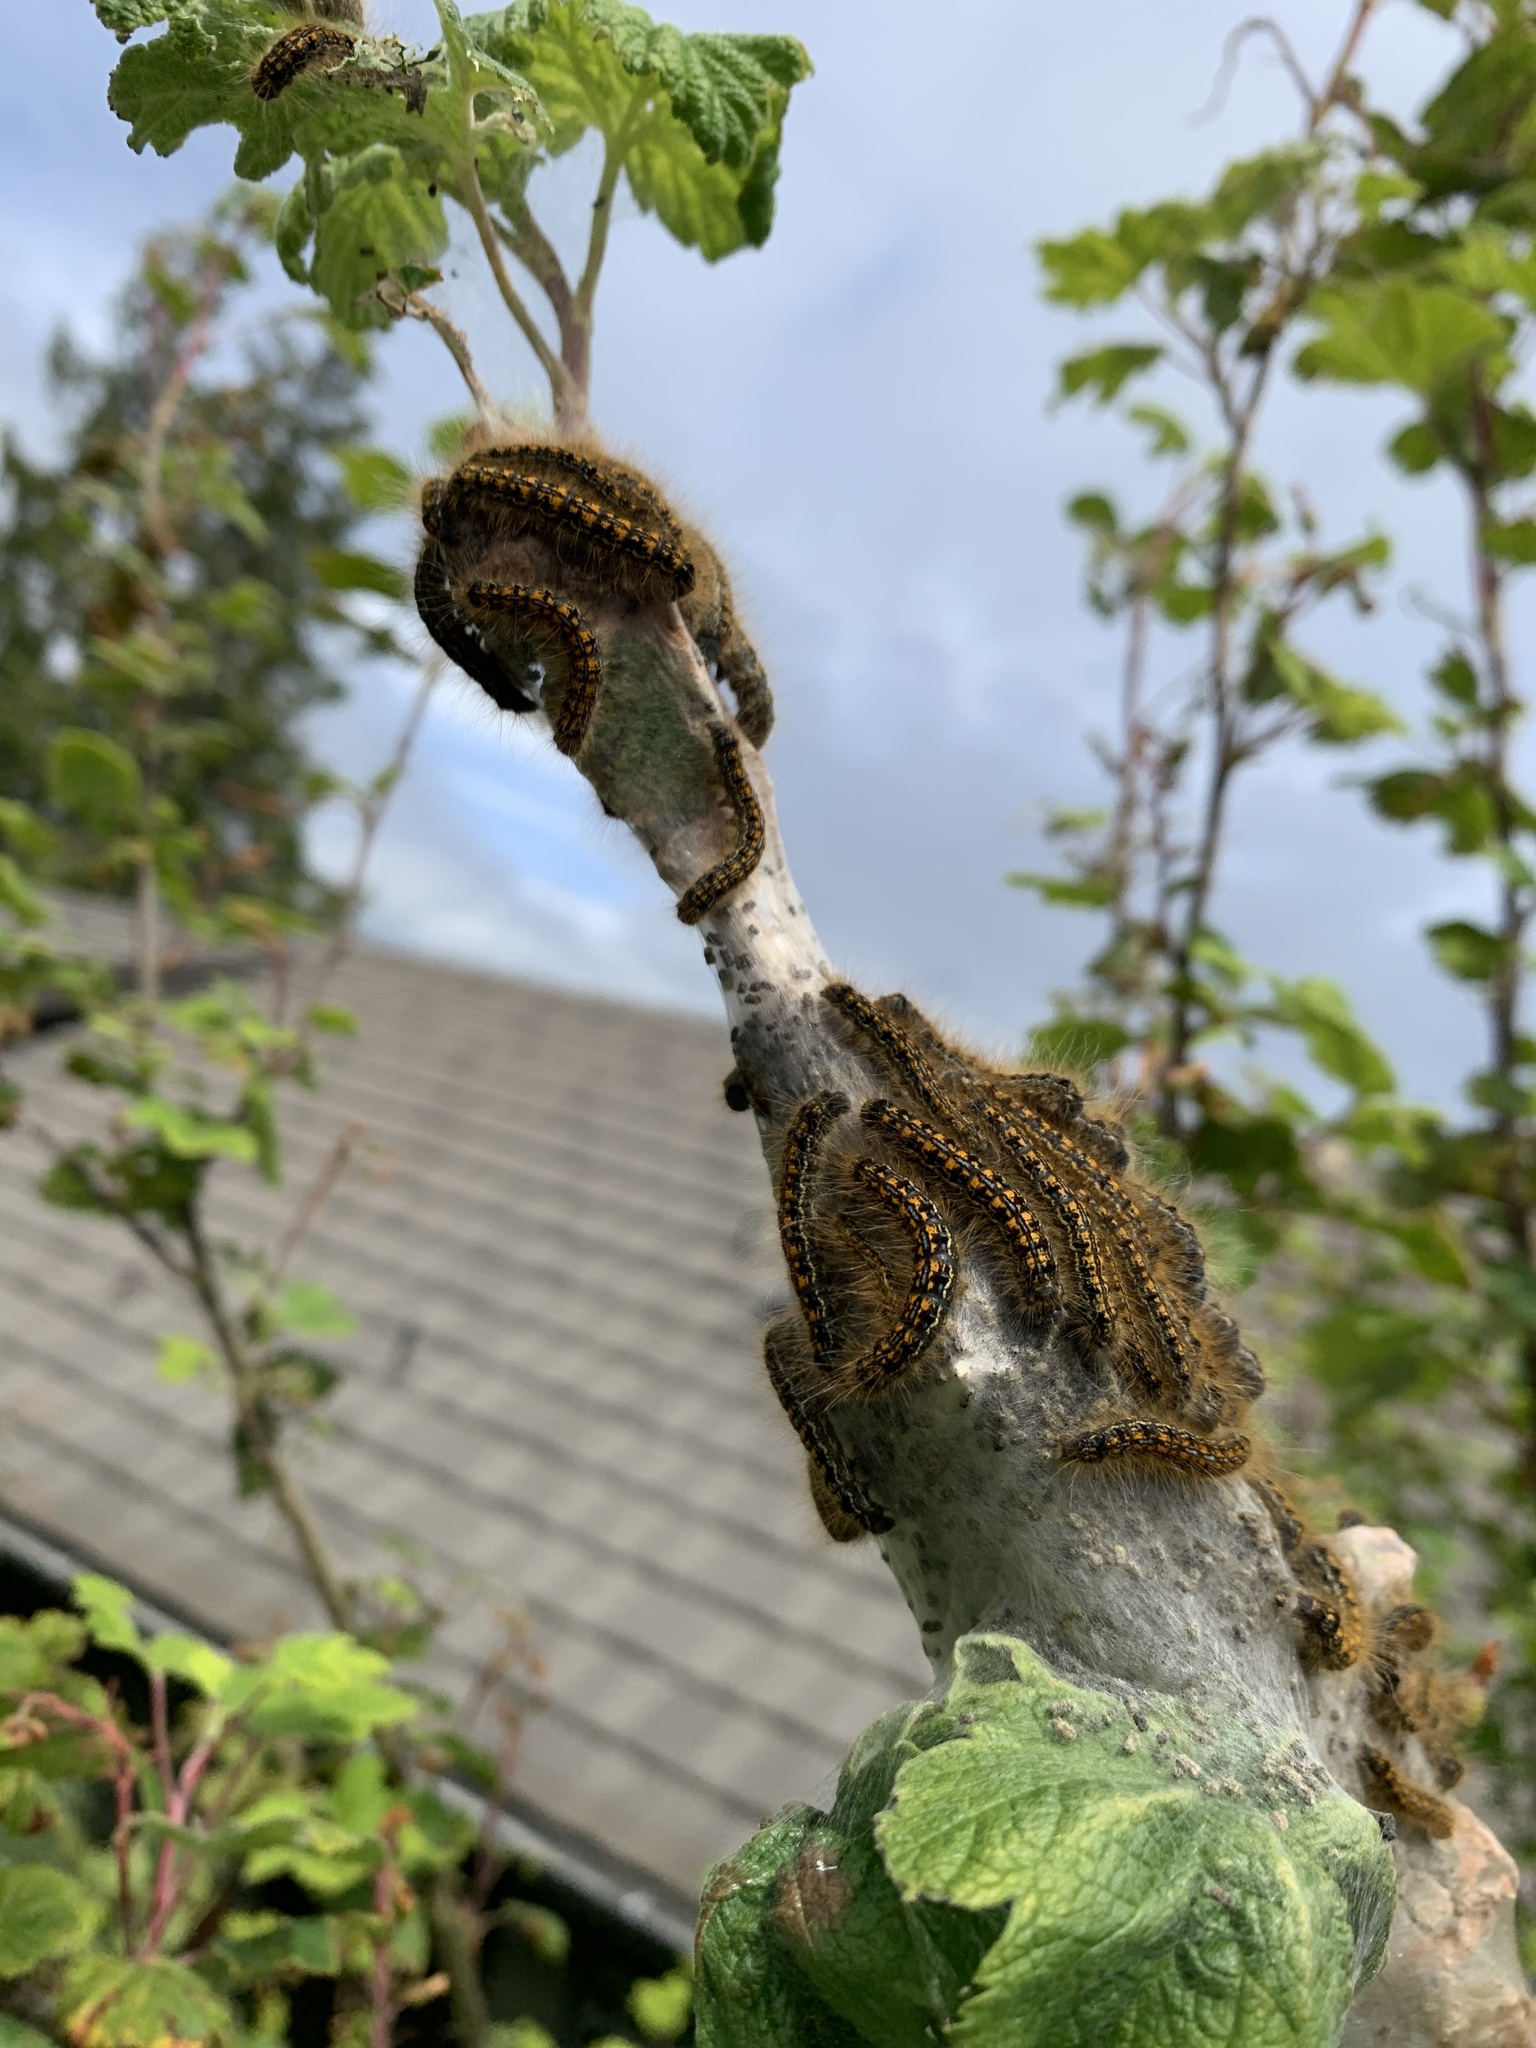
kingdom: Animalia
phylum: Arthropoda
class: Insecta
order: Lepidoptera
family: Lasiocampidae
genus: Malacosoma
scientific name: Malacosoma californica
